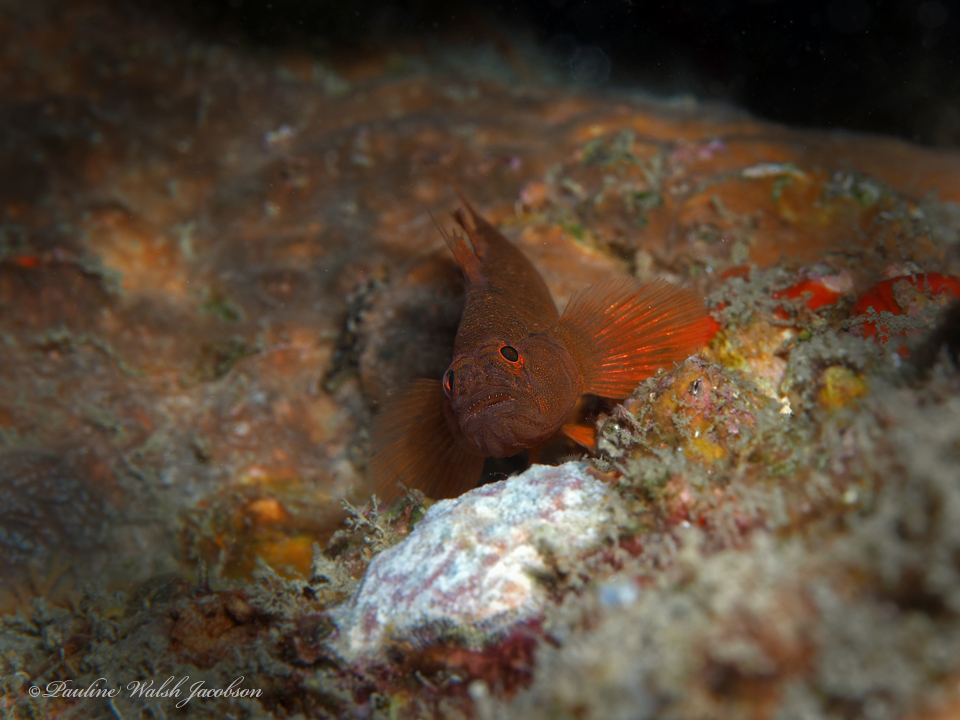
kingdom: Animalia
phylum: Chordata
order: Perciformes
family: Gobiidae
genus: Priolepis
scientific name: Priolepis hipoliti
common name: Rusty goby
